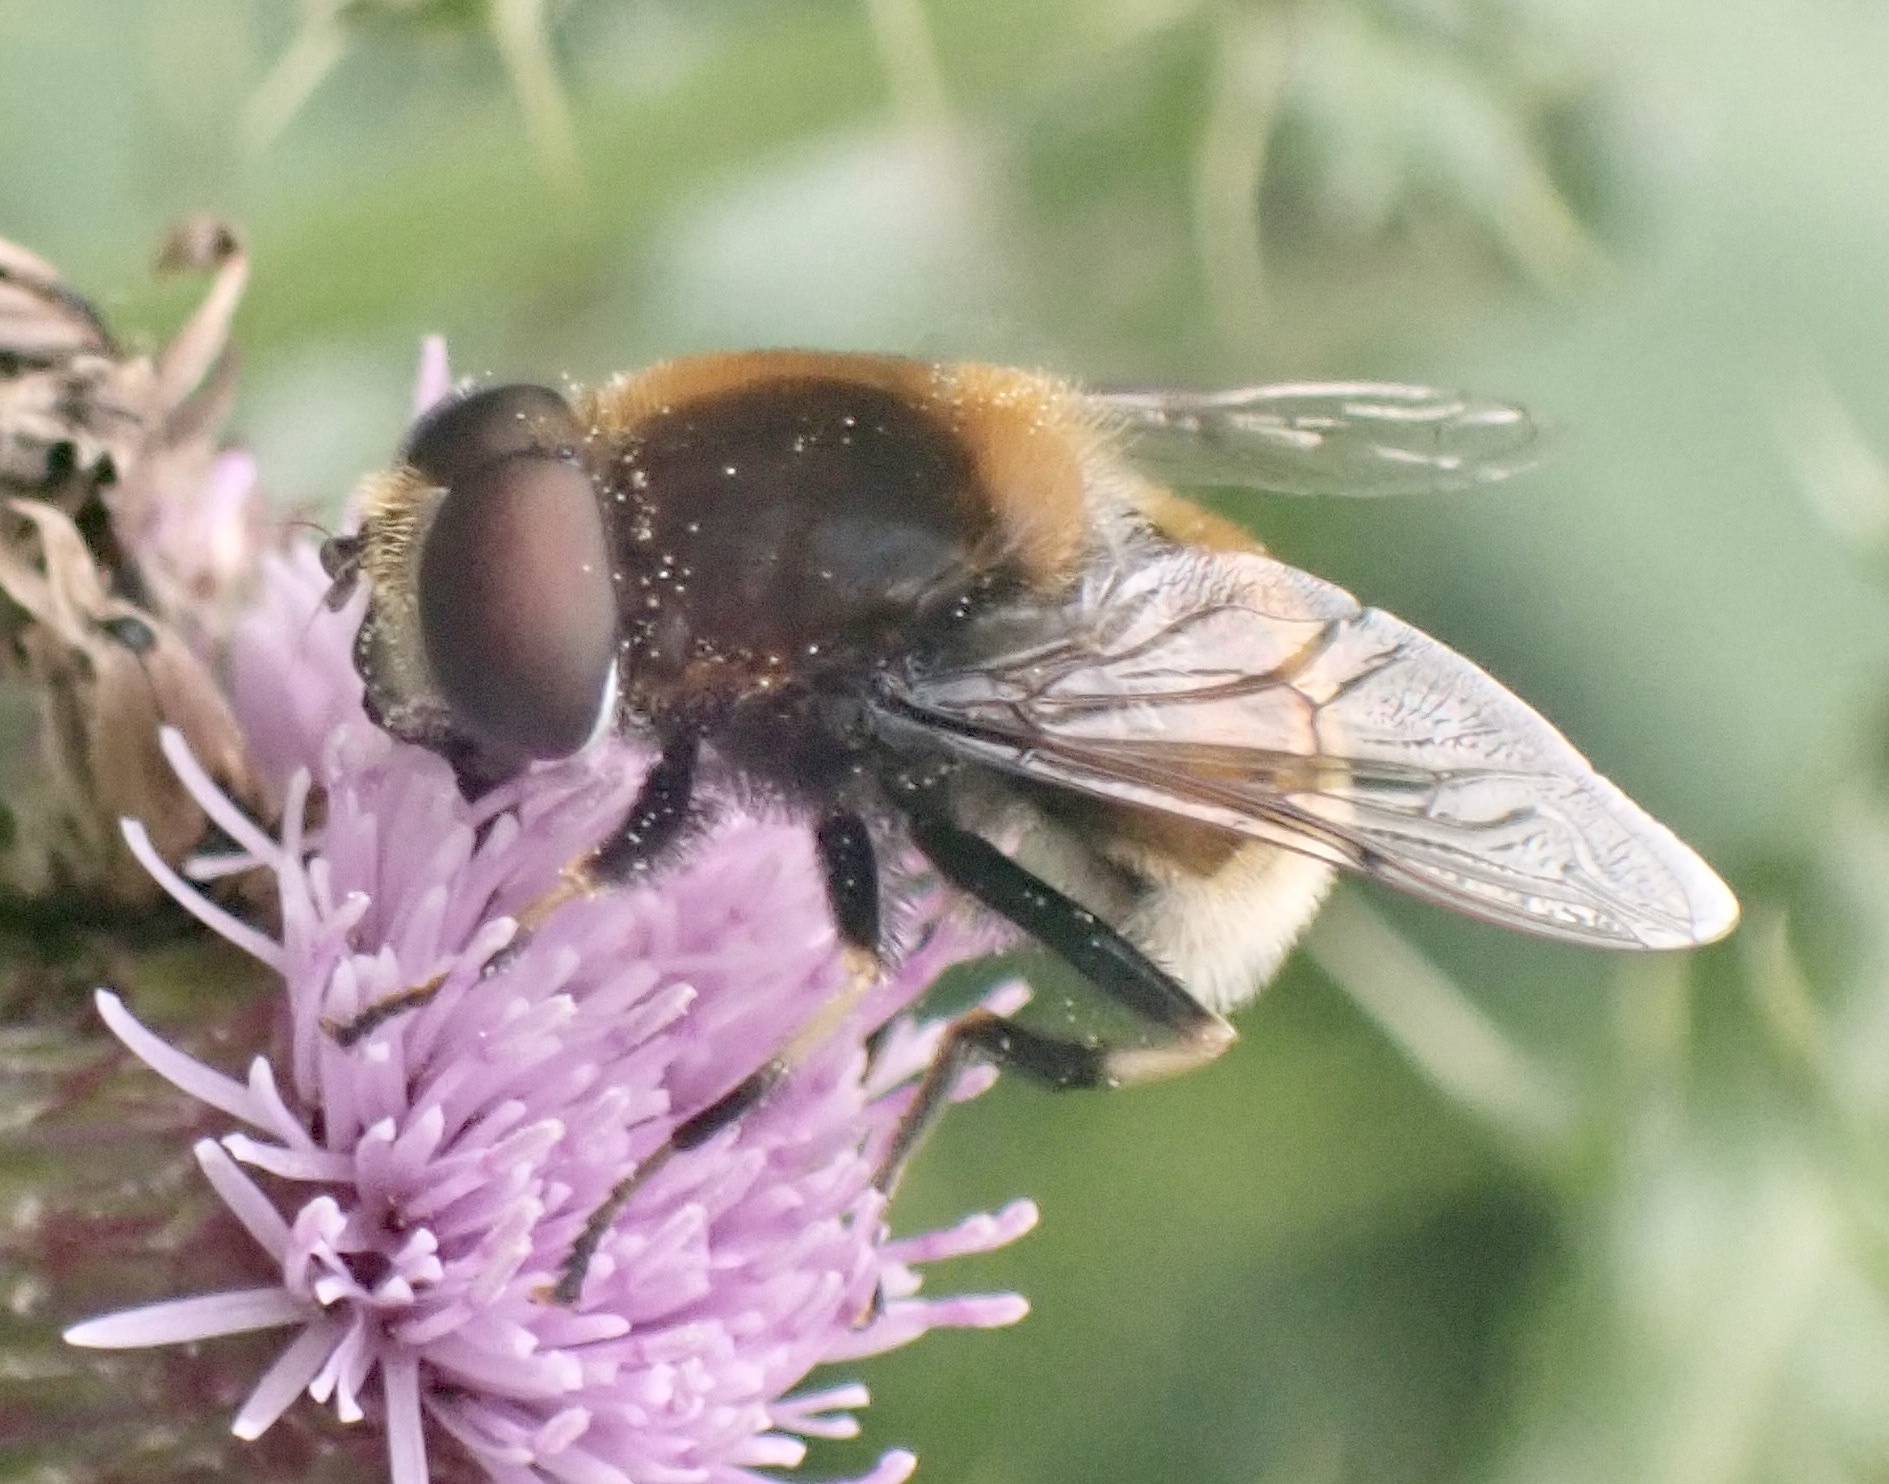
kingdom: Animalia
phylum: Arthropoda
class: Insecta
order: Diptera
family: Syrphidae
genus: Eristalis
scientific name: Eristalis intricaria
